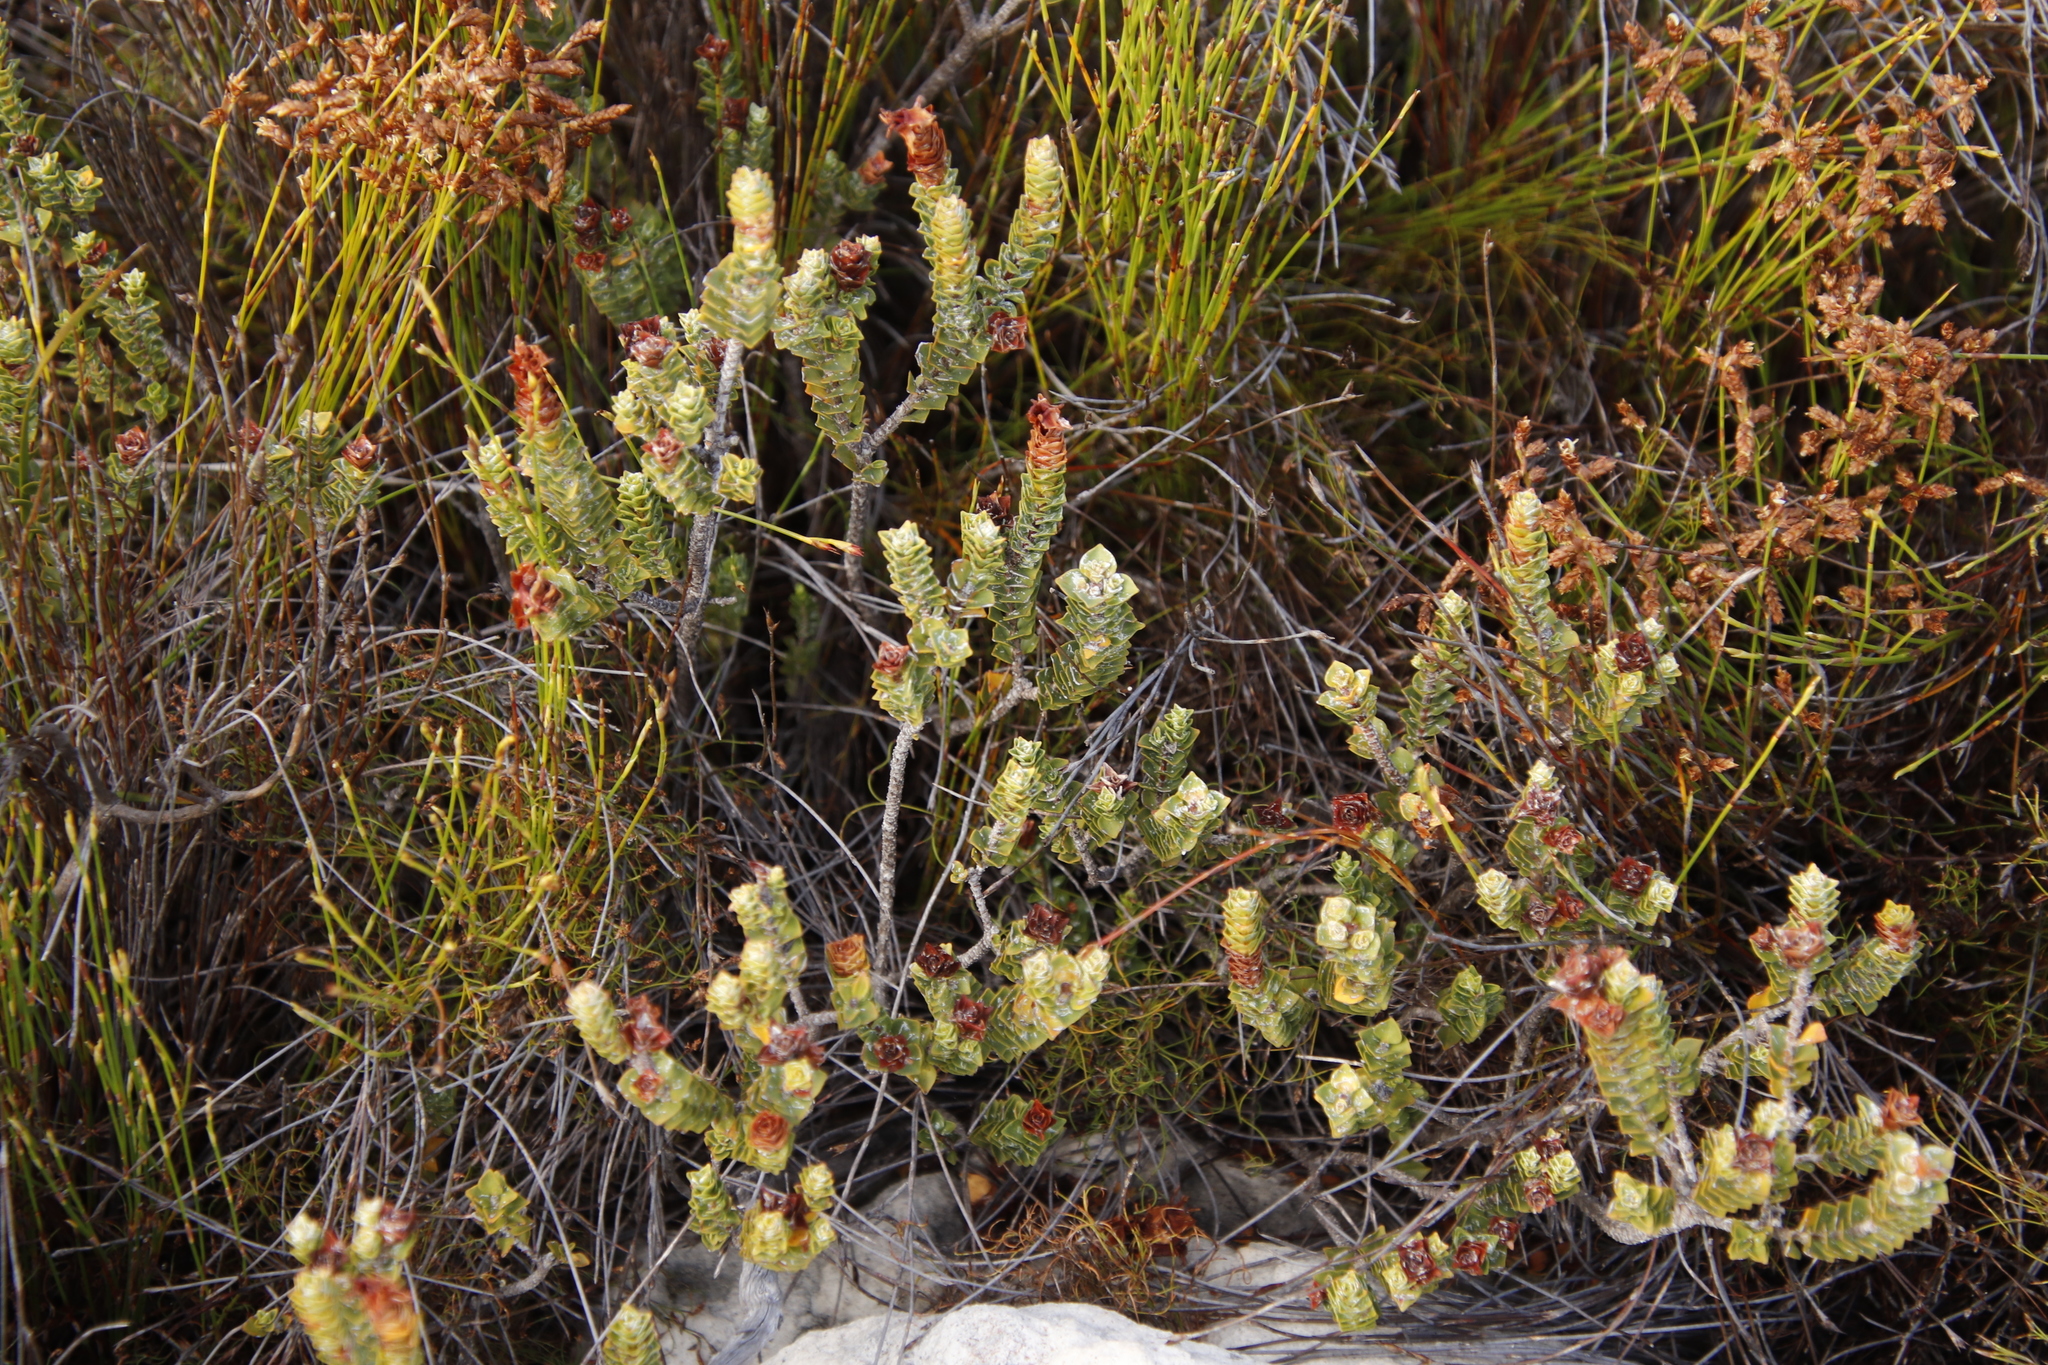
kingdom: Plantae
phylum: Tracheophyta
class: Magnoliopsida
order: Myrtales
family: Penaeaceae
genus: Saltera
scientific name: Saltera sarcocolla
